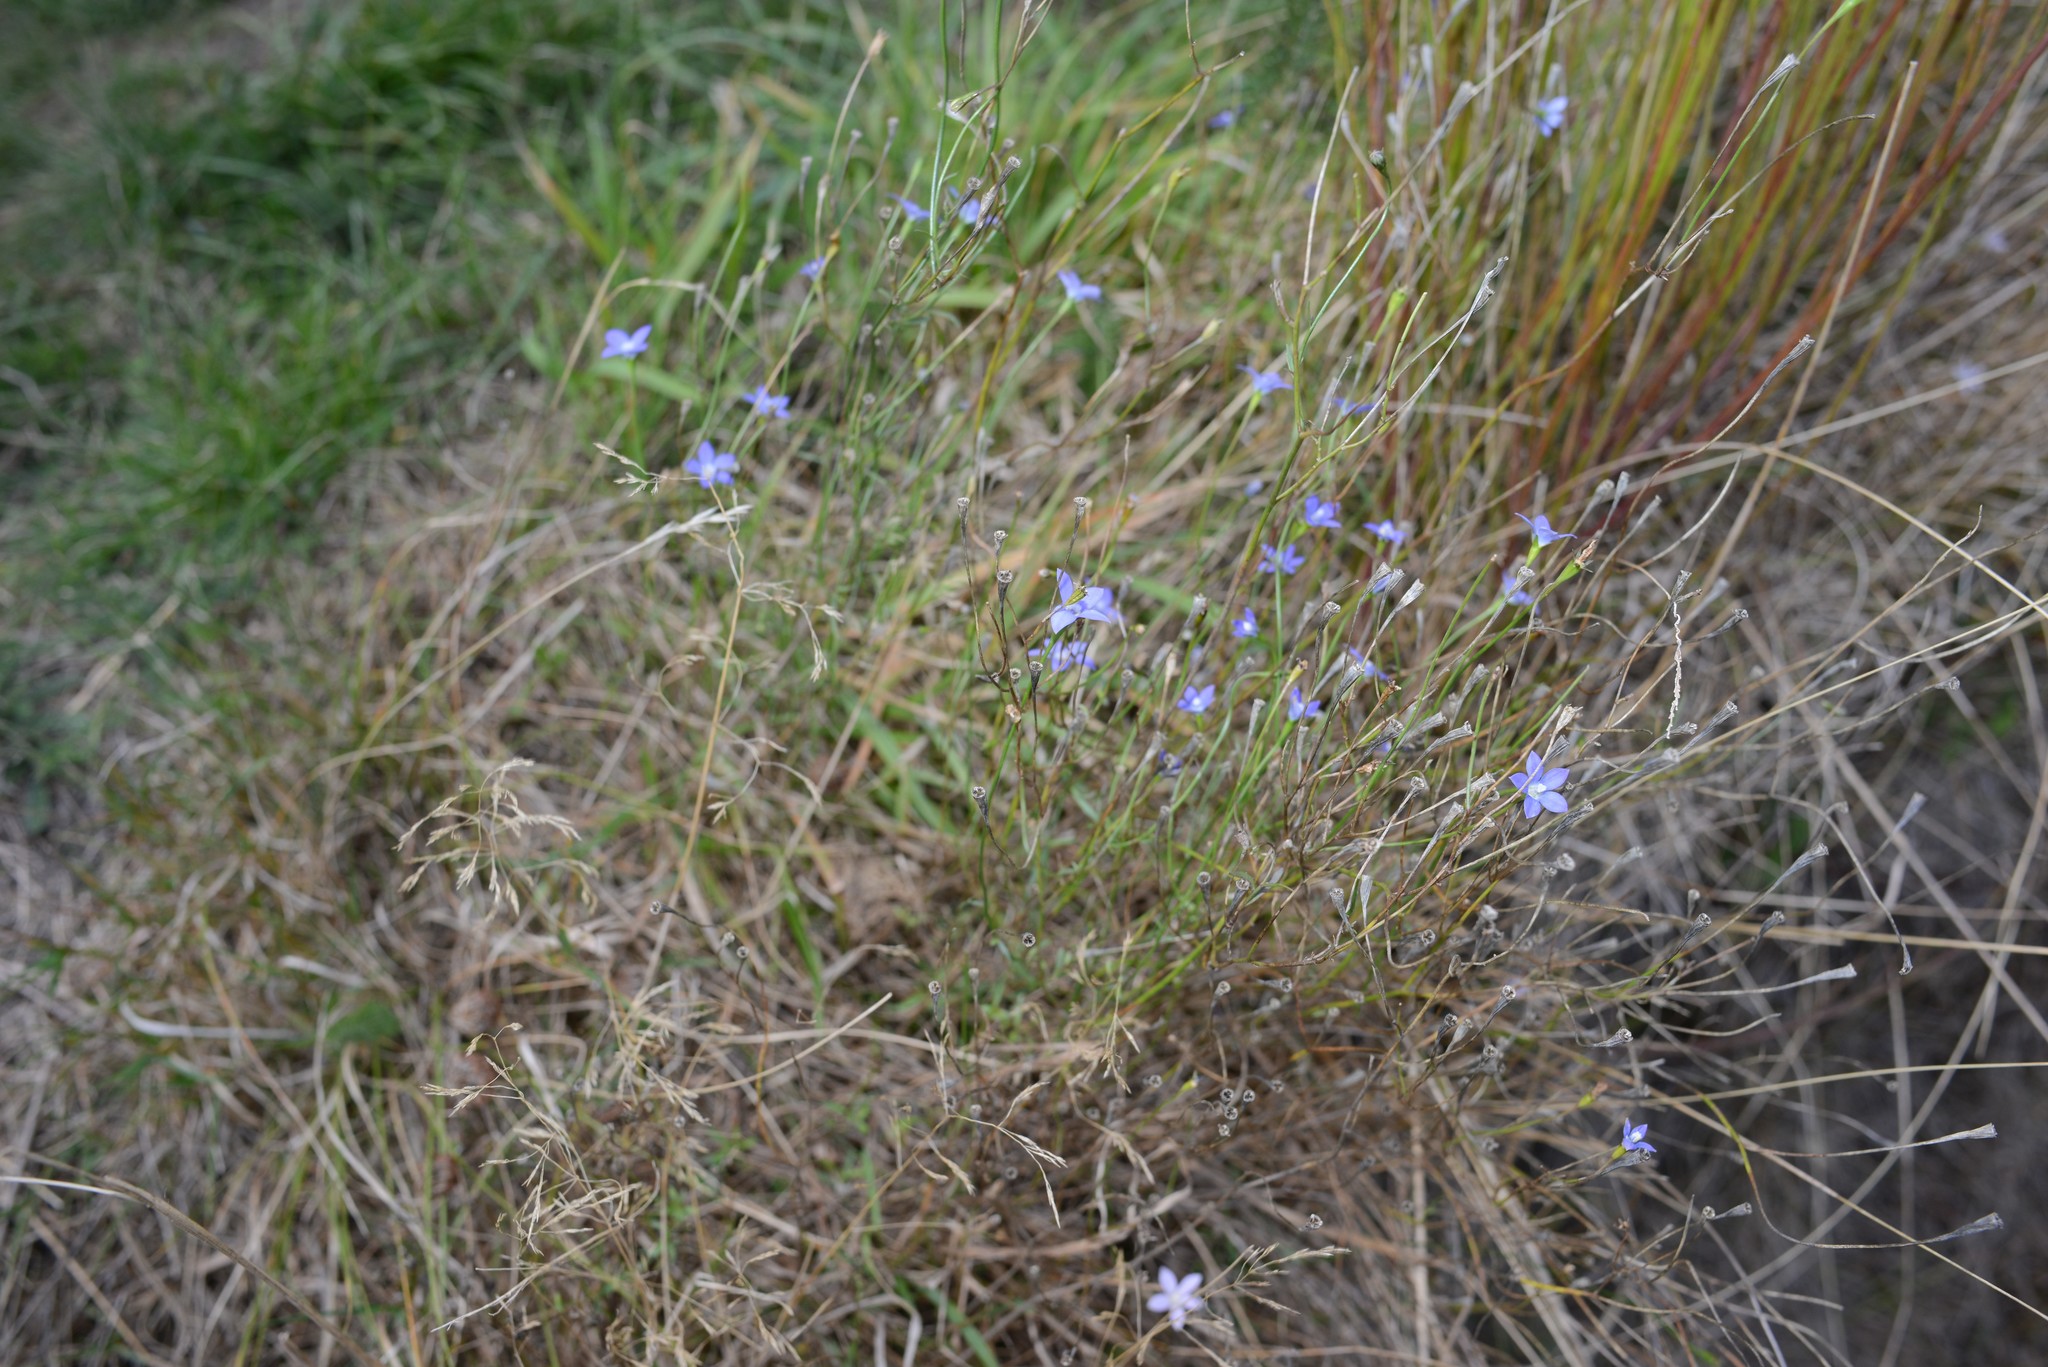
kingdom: Plantae
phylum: Tracheophyta
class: Magnoliopsida
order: Asterales
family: Campanulaceae
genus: Wahlenbergia
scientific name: Wahlenbergia violacea
